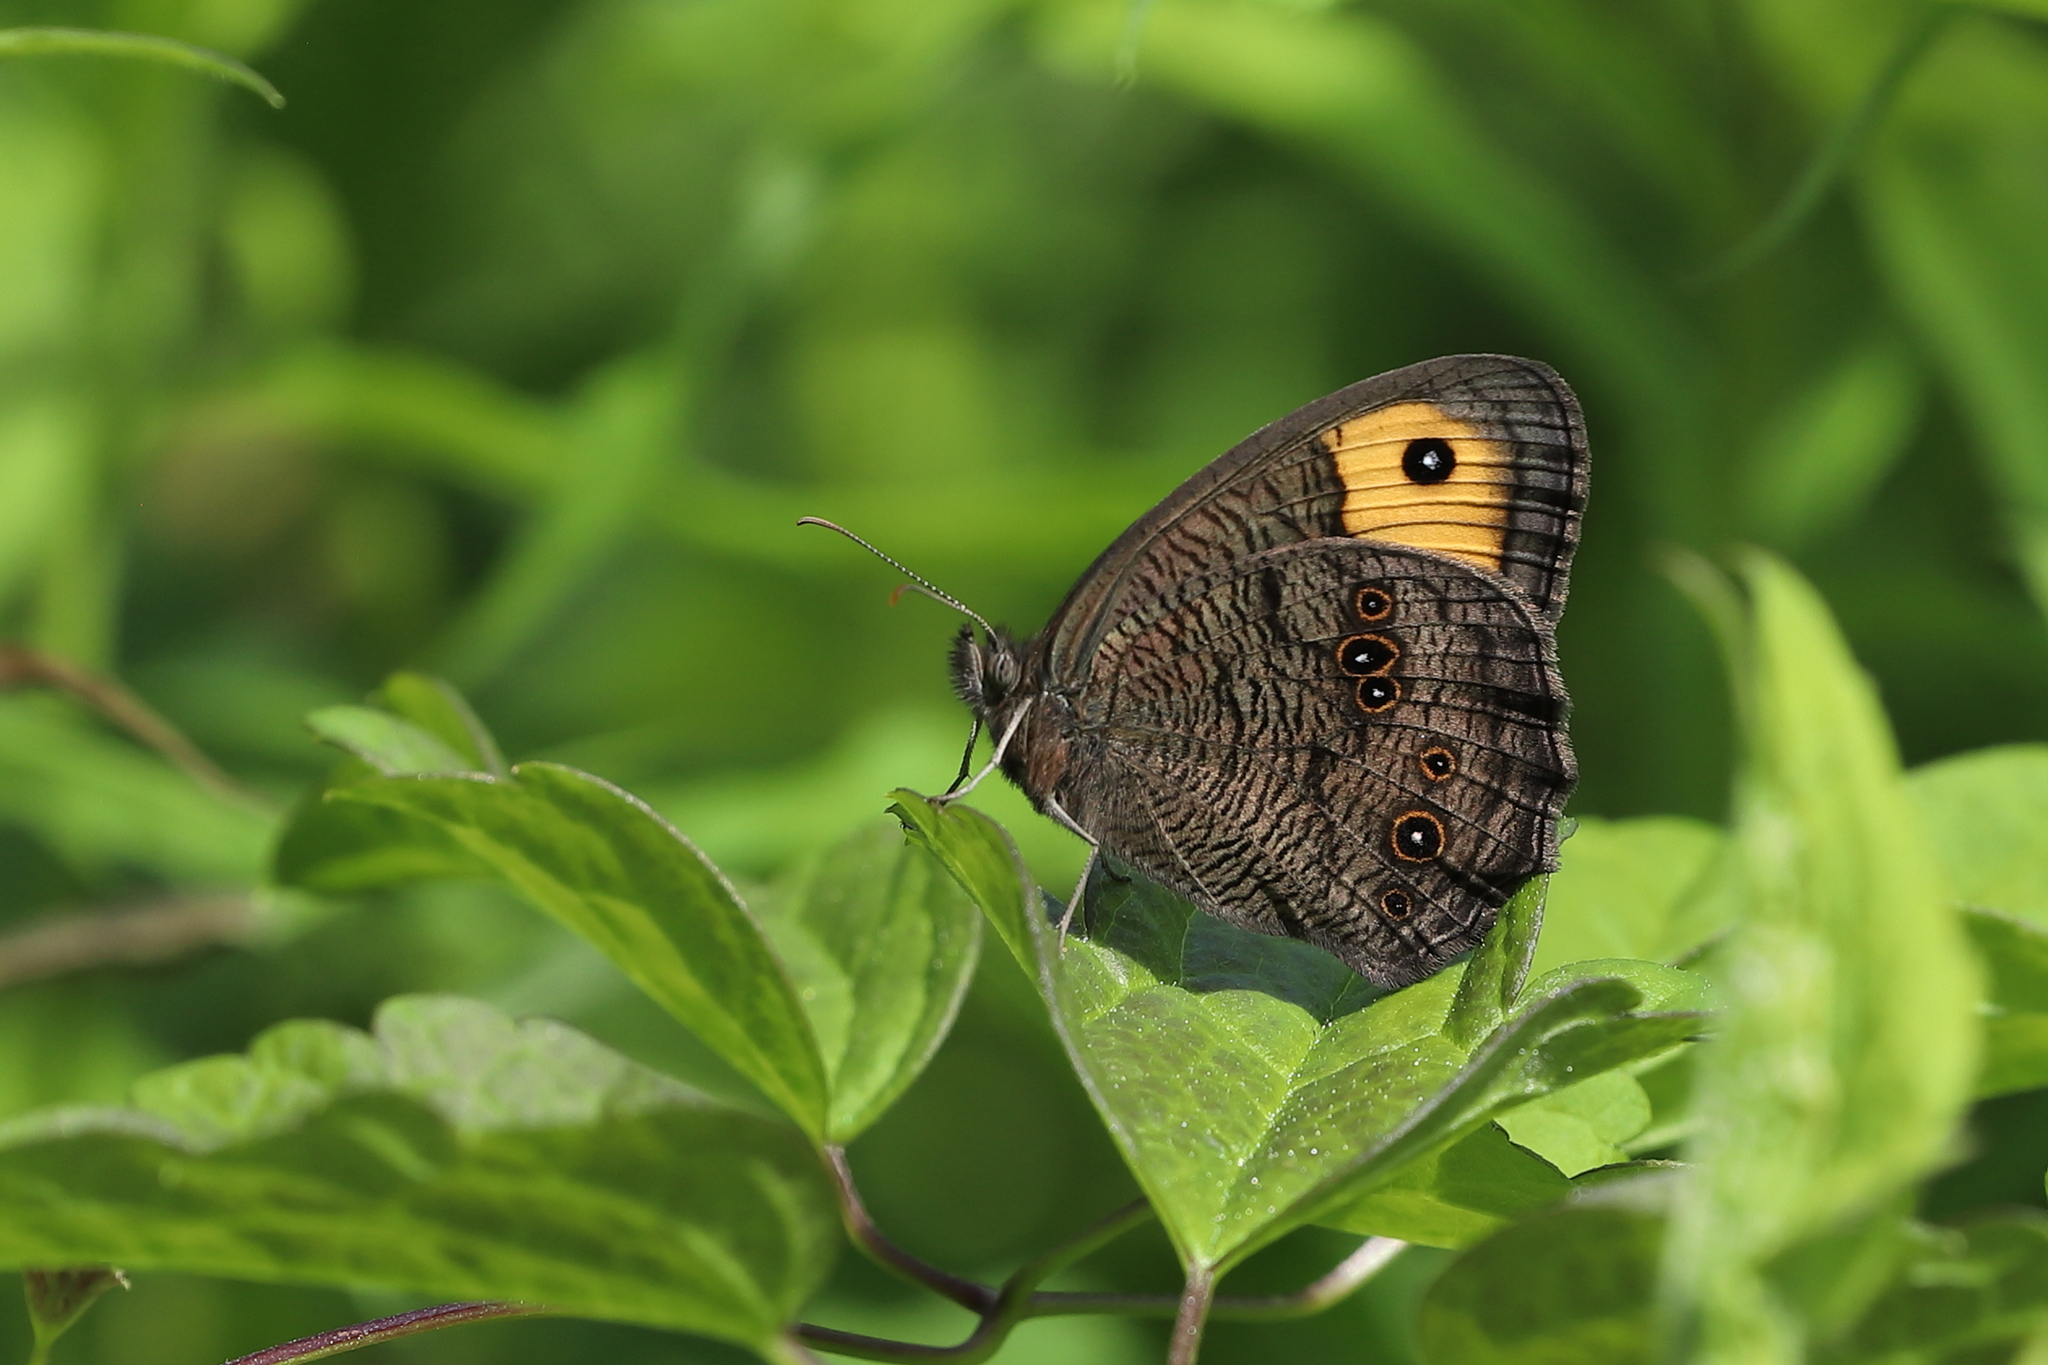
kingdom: Animalia
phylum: Arthropoda
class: Insecta
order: Lepidoptera
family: Nymphalidae
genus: Cercyonis
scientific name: Cercyonis pegala
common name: Common wood-nymph
